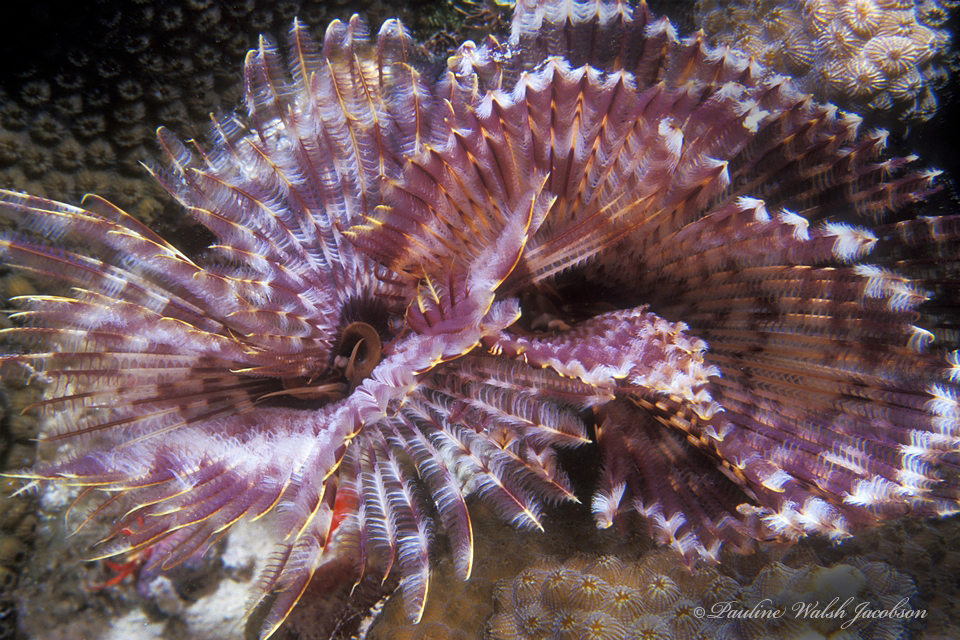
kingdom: Animalia
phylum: Annelida
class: Polychaeta
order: Sabellida
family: Sabellidae
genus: Sabellastarte
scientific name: Sabellastarte magnifica
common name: Giant feather-duster worm
